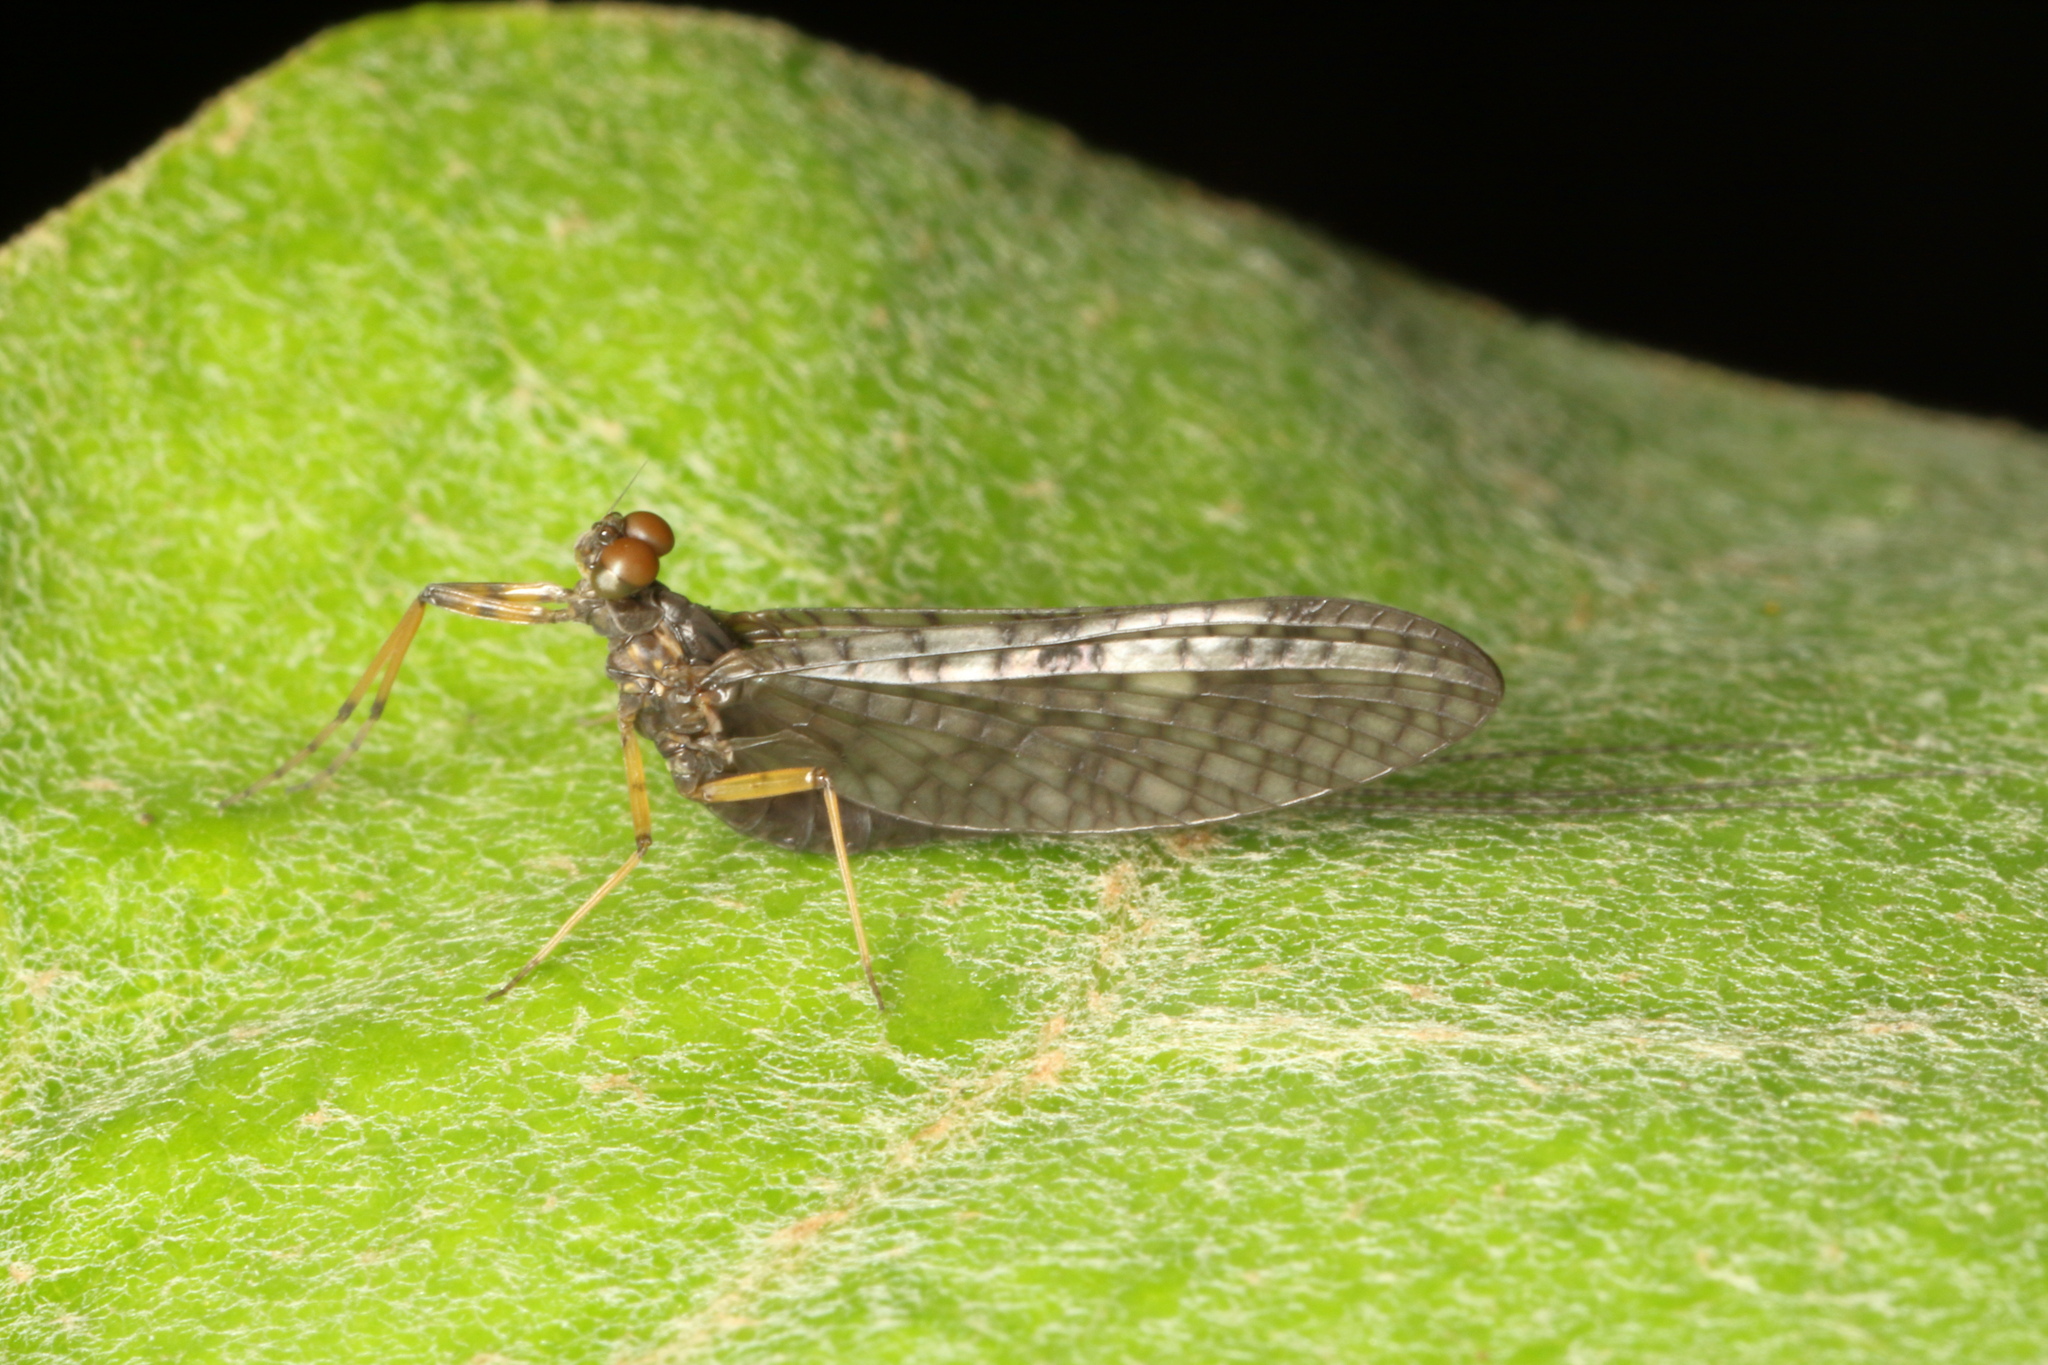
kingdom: Animalia
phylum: Arthropoda
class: Insecta
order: Ephemeroptera
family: Leptophlebiidae
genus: Neozephlebia
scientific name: Neozephlebia scita
